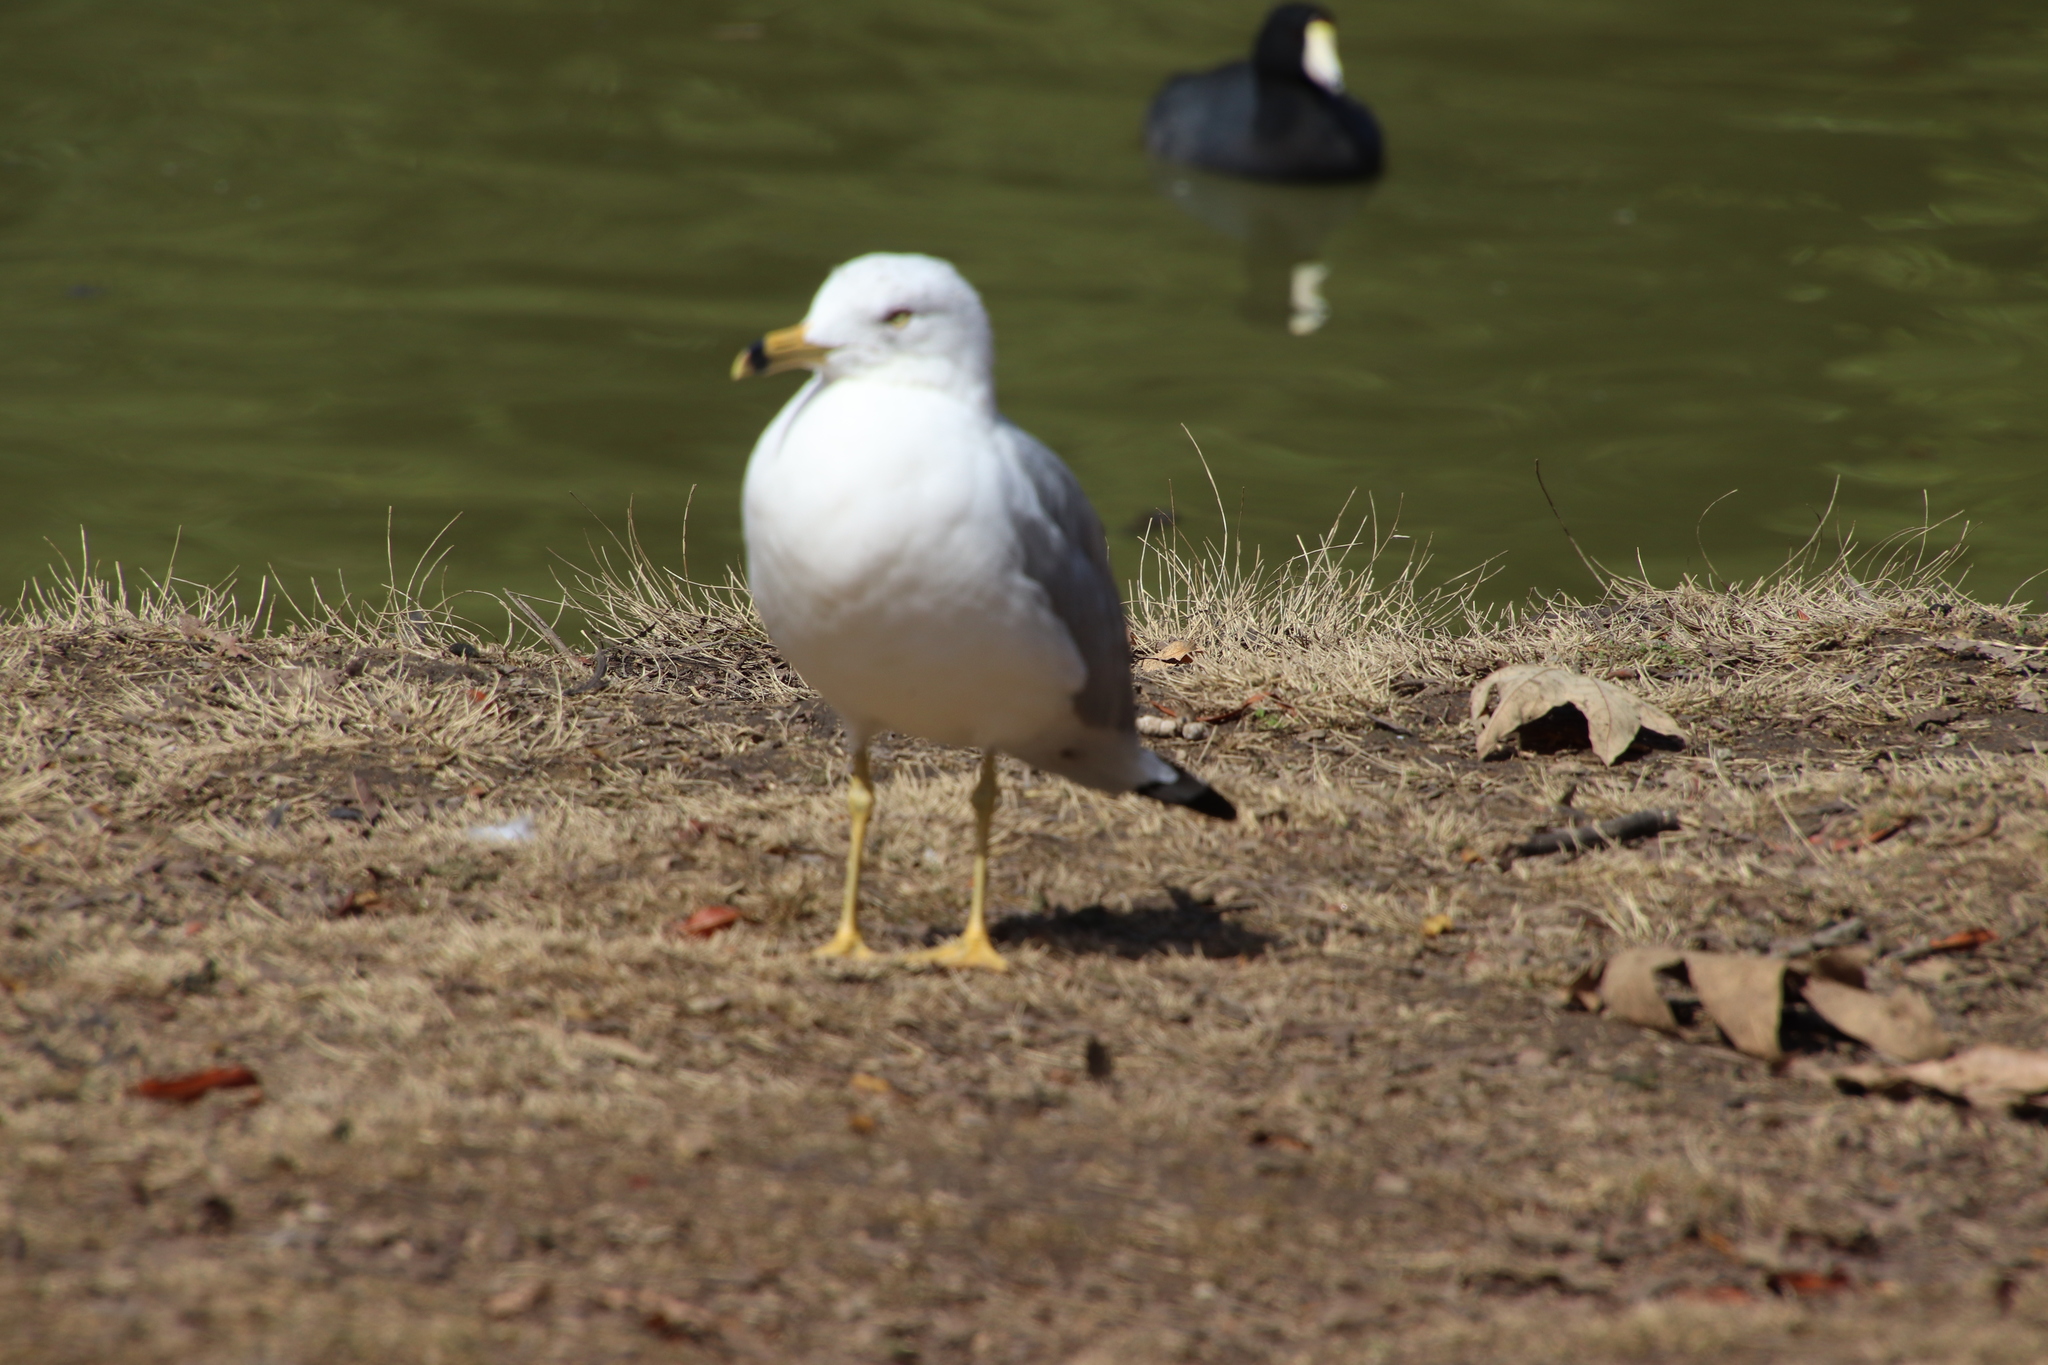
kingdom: Animalia
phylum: Chordata
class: Aves
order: Charadriiformes
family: Laridae
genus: Larus
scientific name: Larus delawarensis
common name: Ring-billed gull
